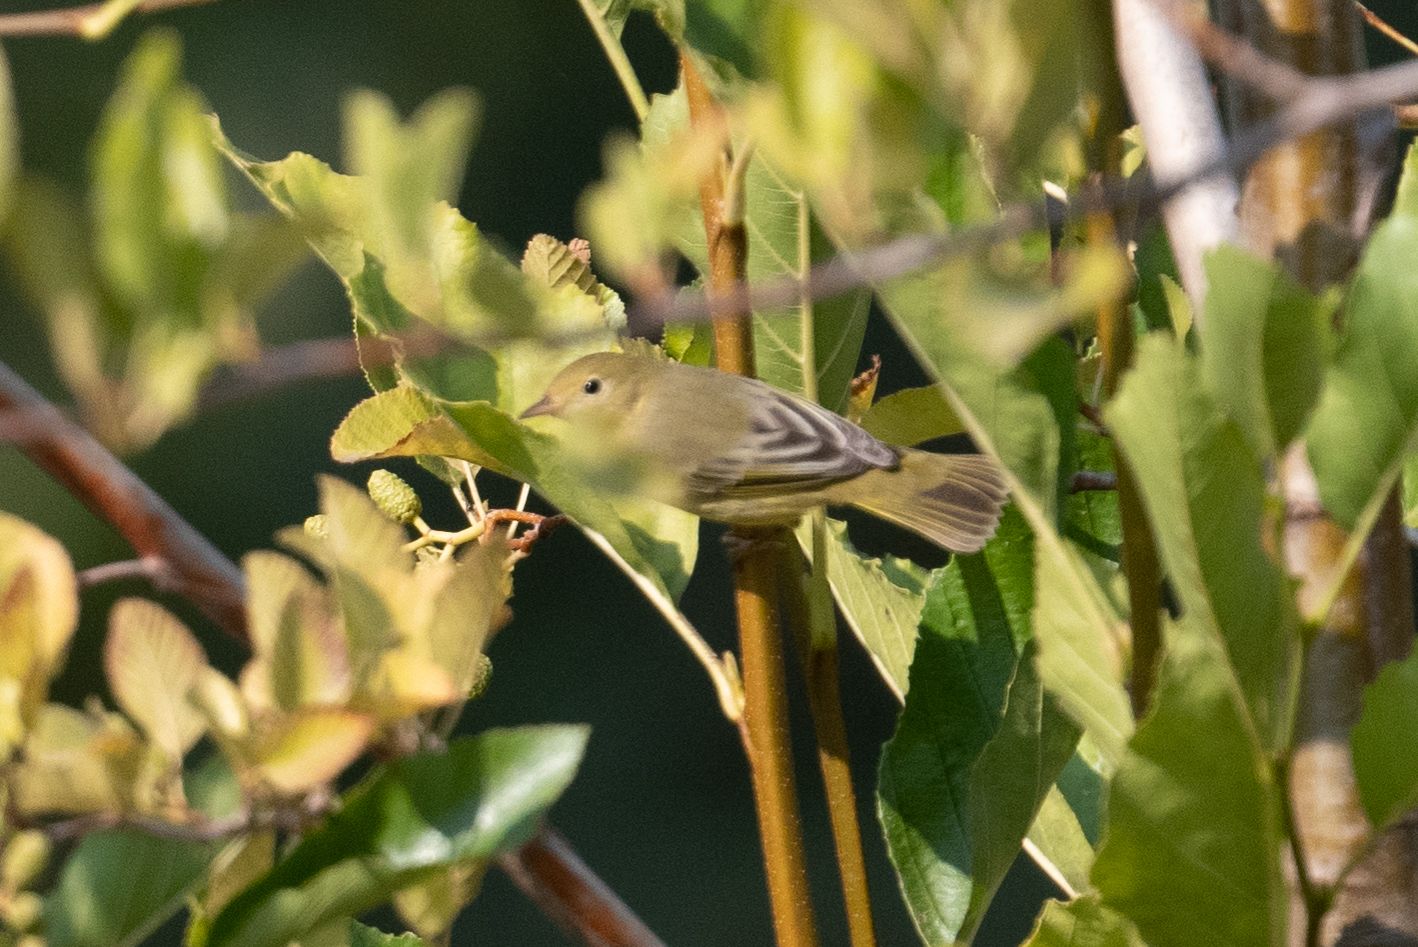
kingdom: Animalia
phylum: Chordata
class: Aves
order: Passeriformes
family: Parulidae
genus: Setophaga
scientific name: Setophaga petechia
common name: Yellow warbler
